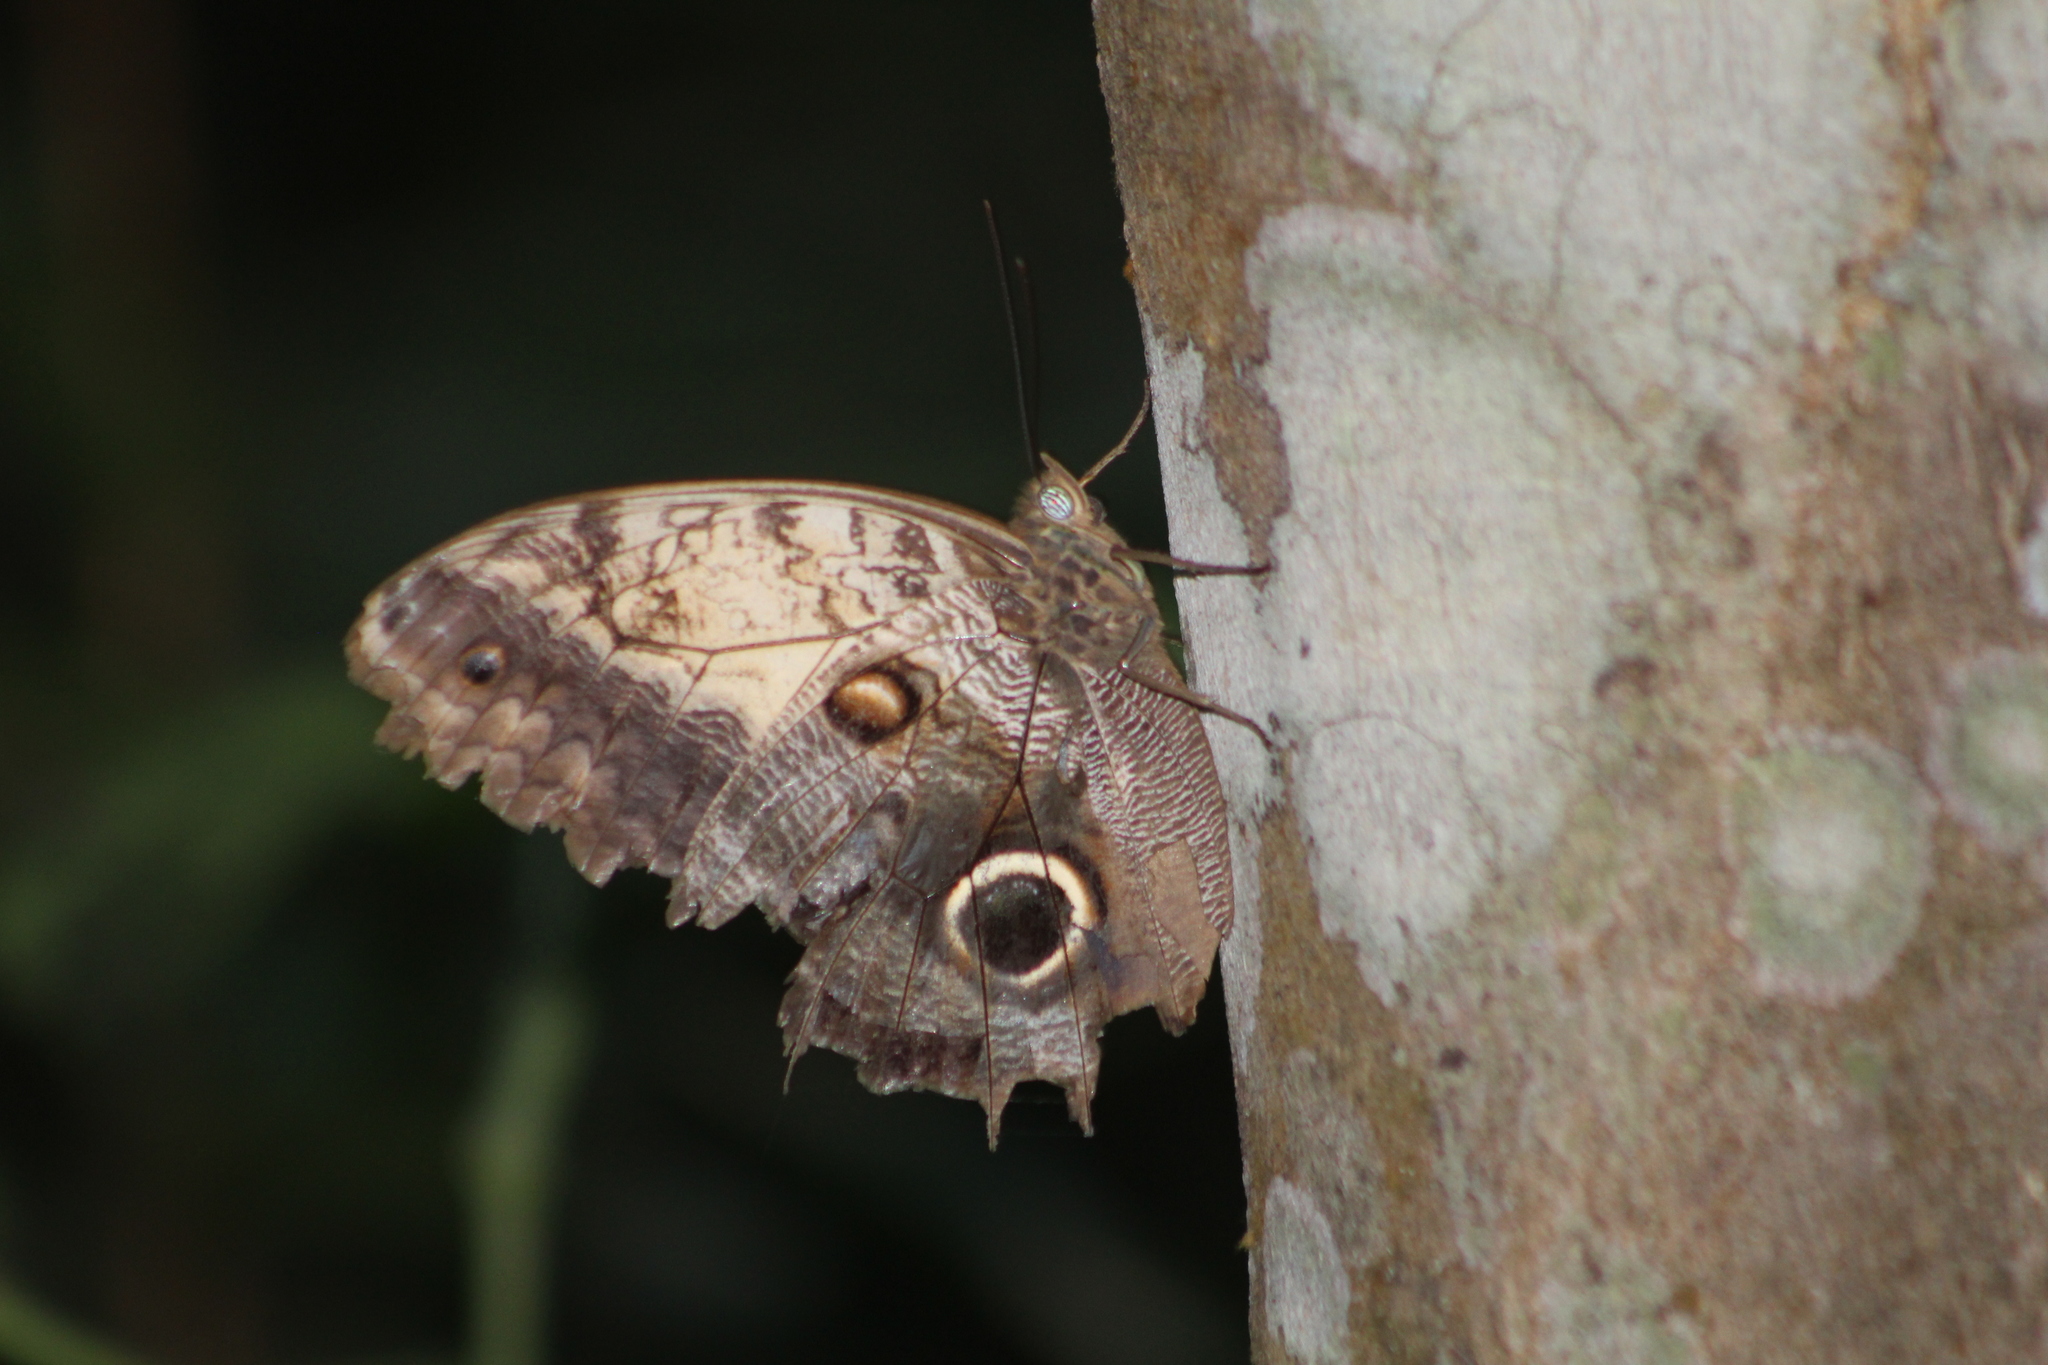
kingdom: Animalia
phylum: Arthropoda
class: Insecta
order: Lepidoptera
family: Nymphalidae
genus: Caligo
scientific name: Caligo telamonius
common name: Pale owl-butterfly
